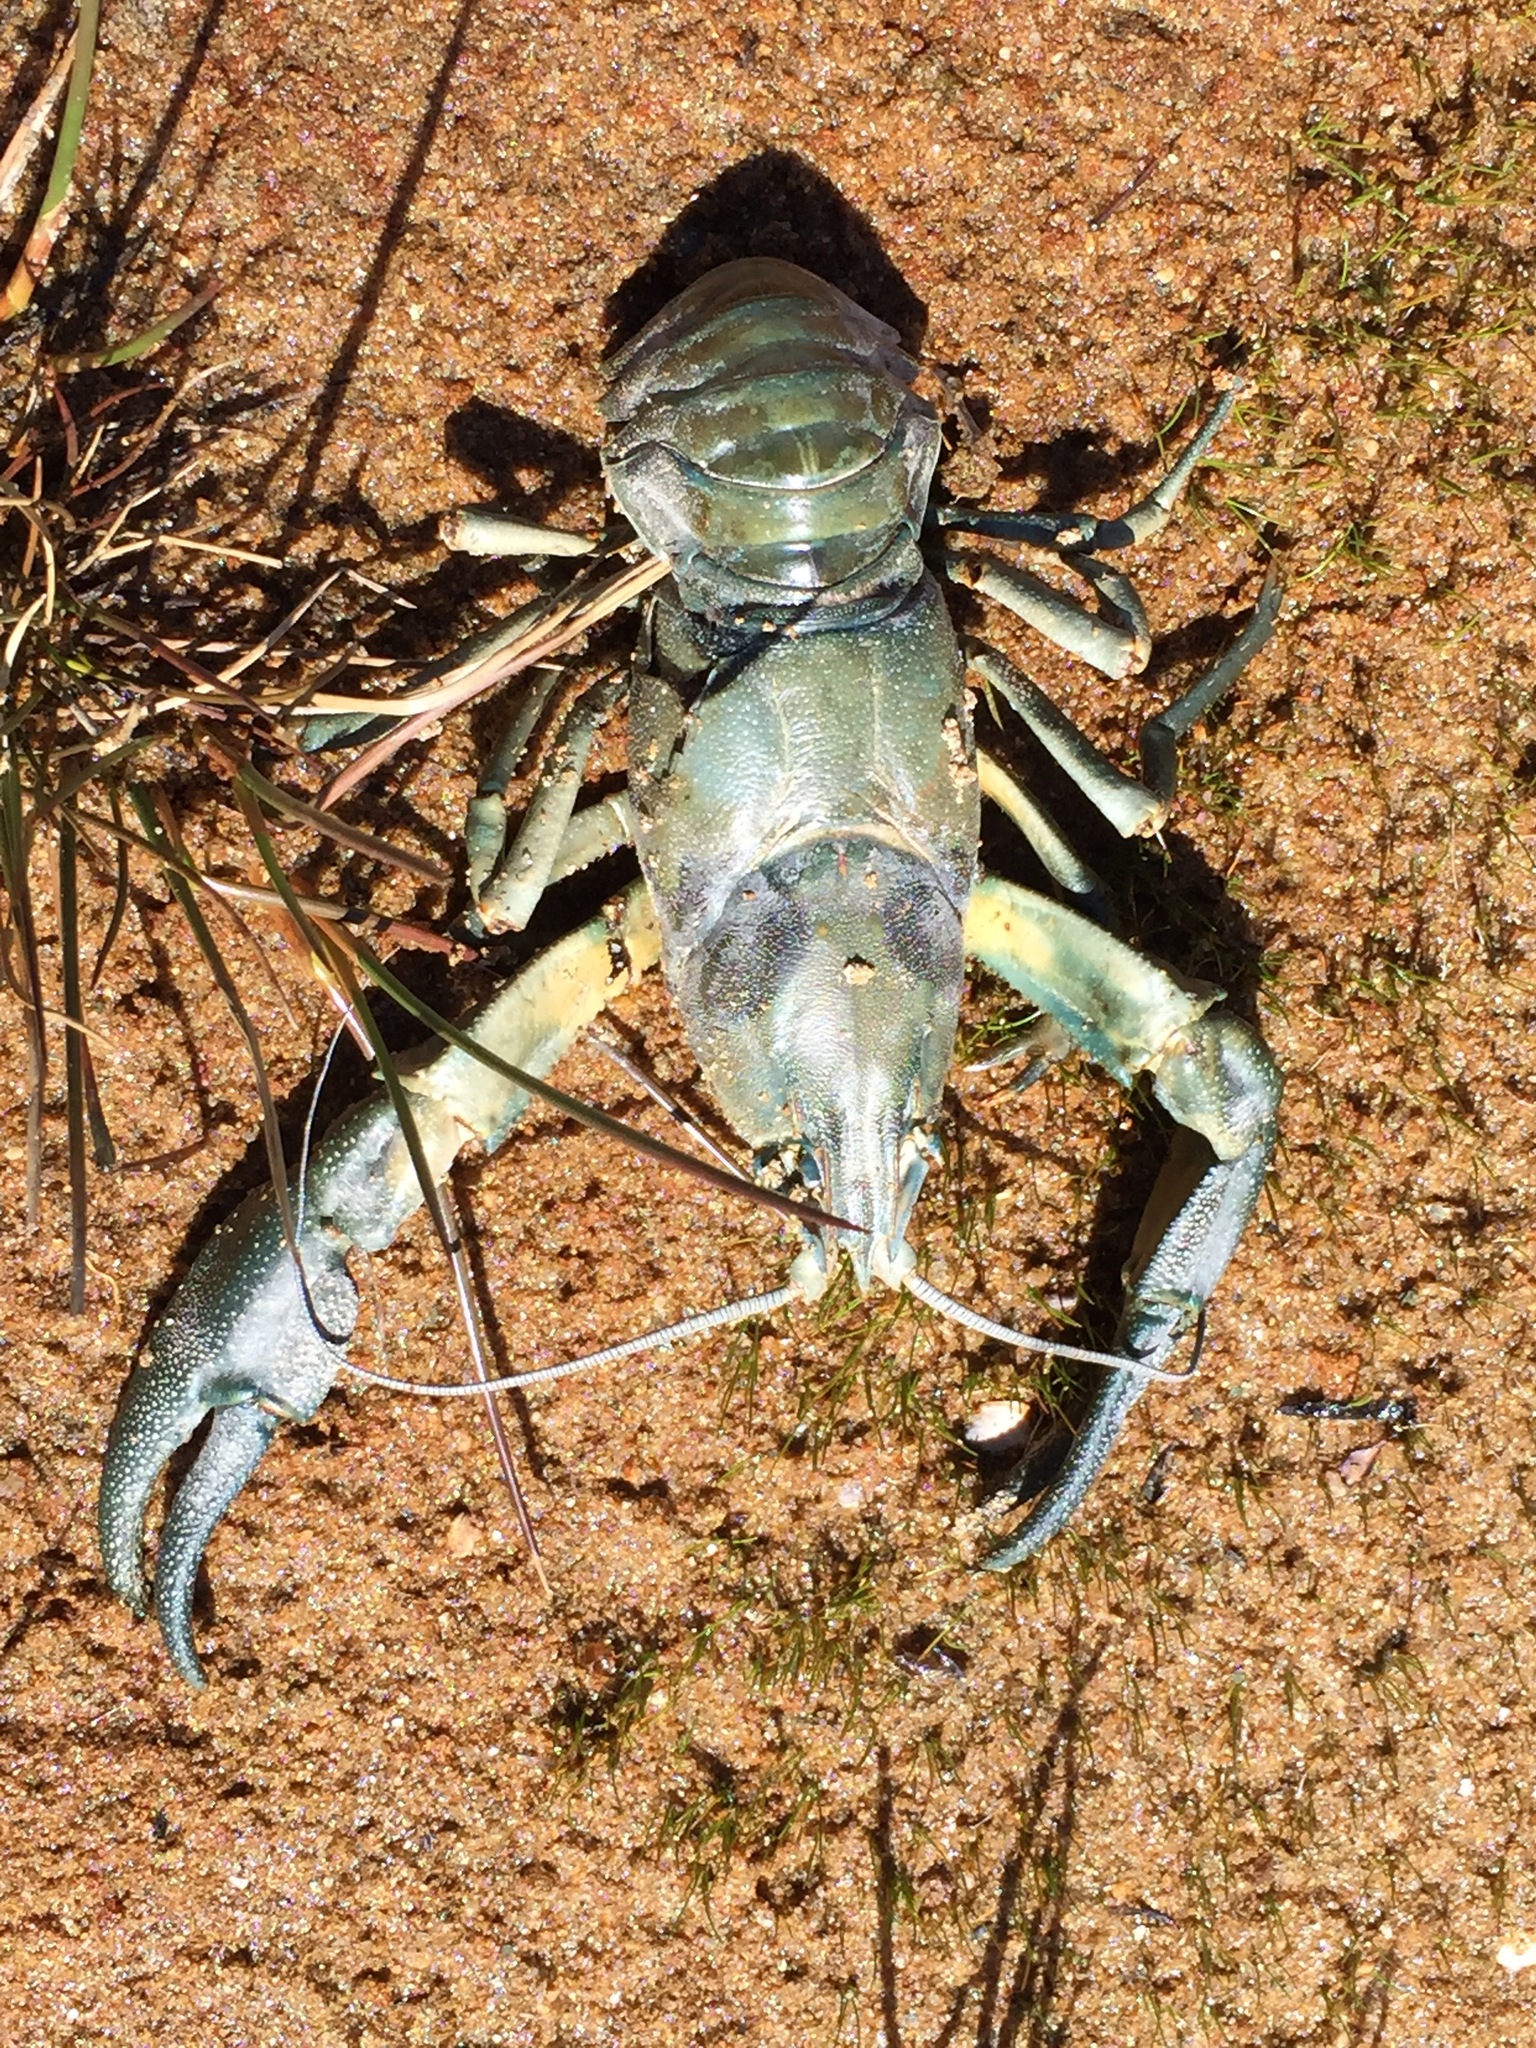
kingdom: Animalia
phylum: Arthropoda
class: Malacostraca
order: Decapoda
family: Astacidae
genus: Pacifastacus
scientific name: Pacifastacus leniusculus
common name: Signal crayfish
